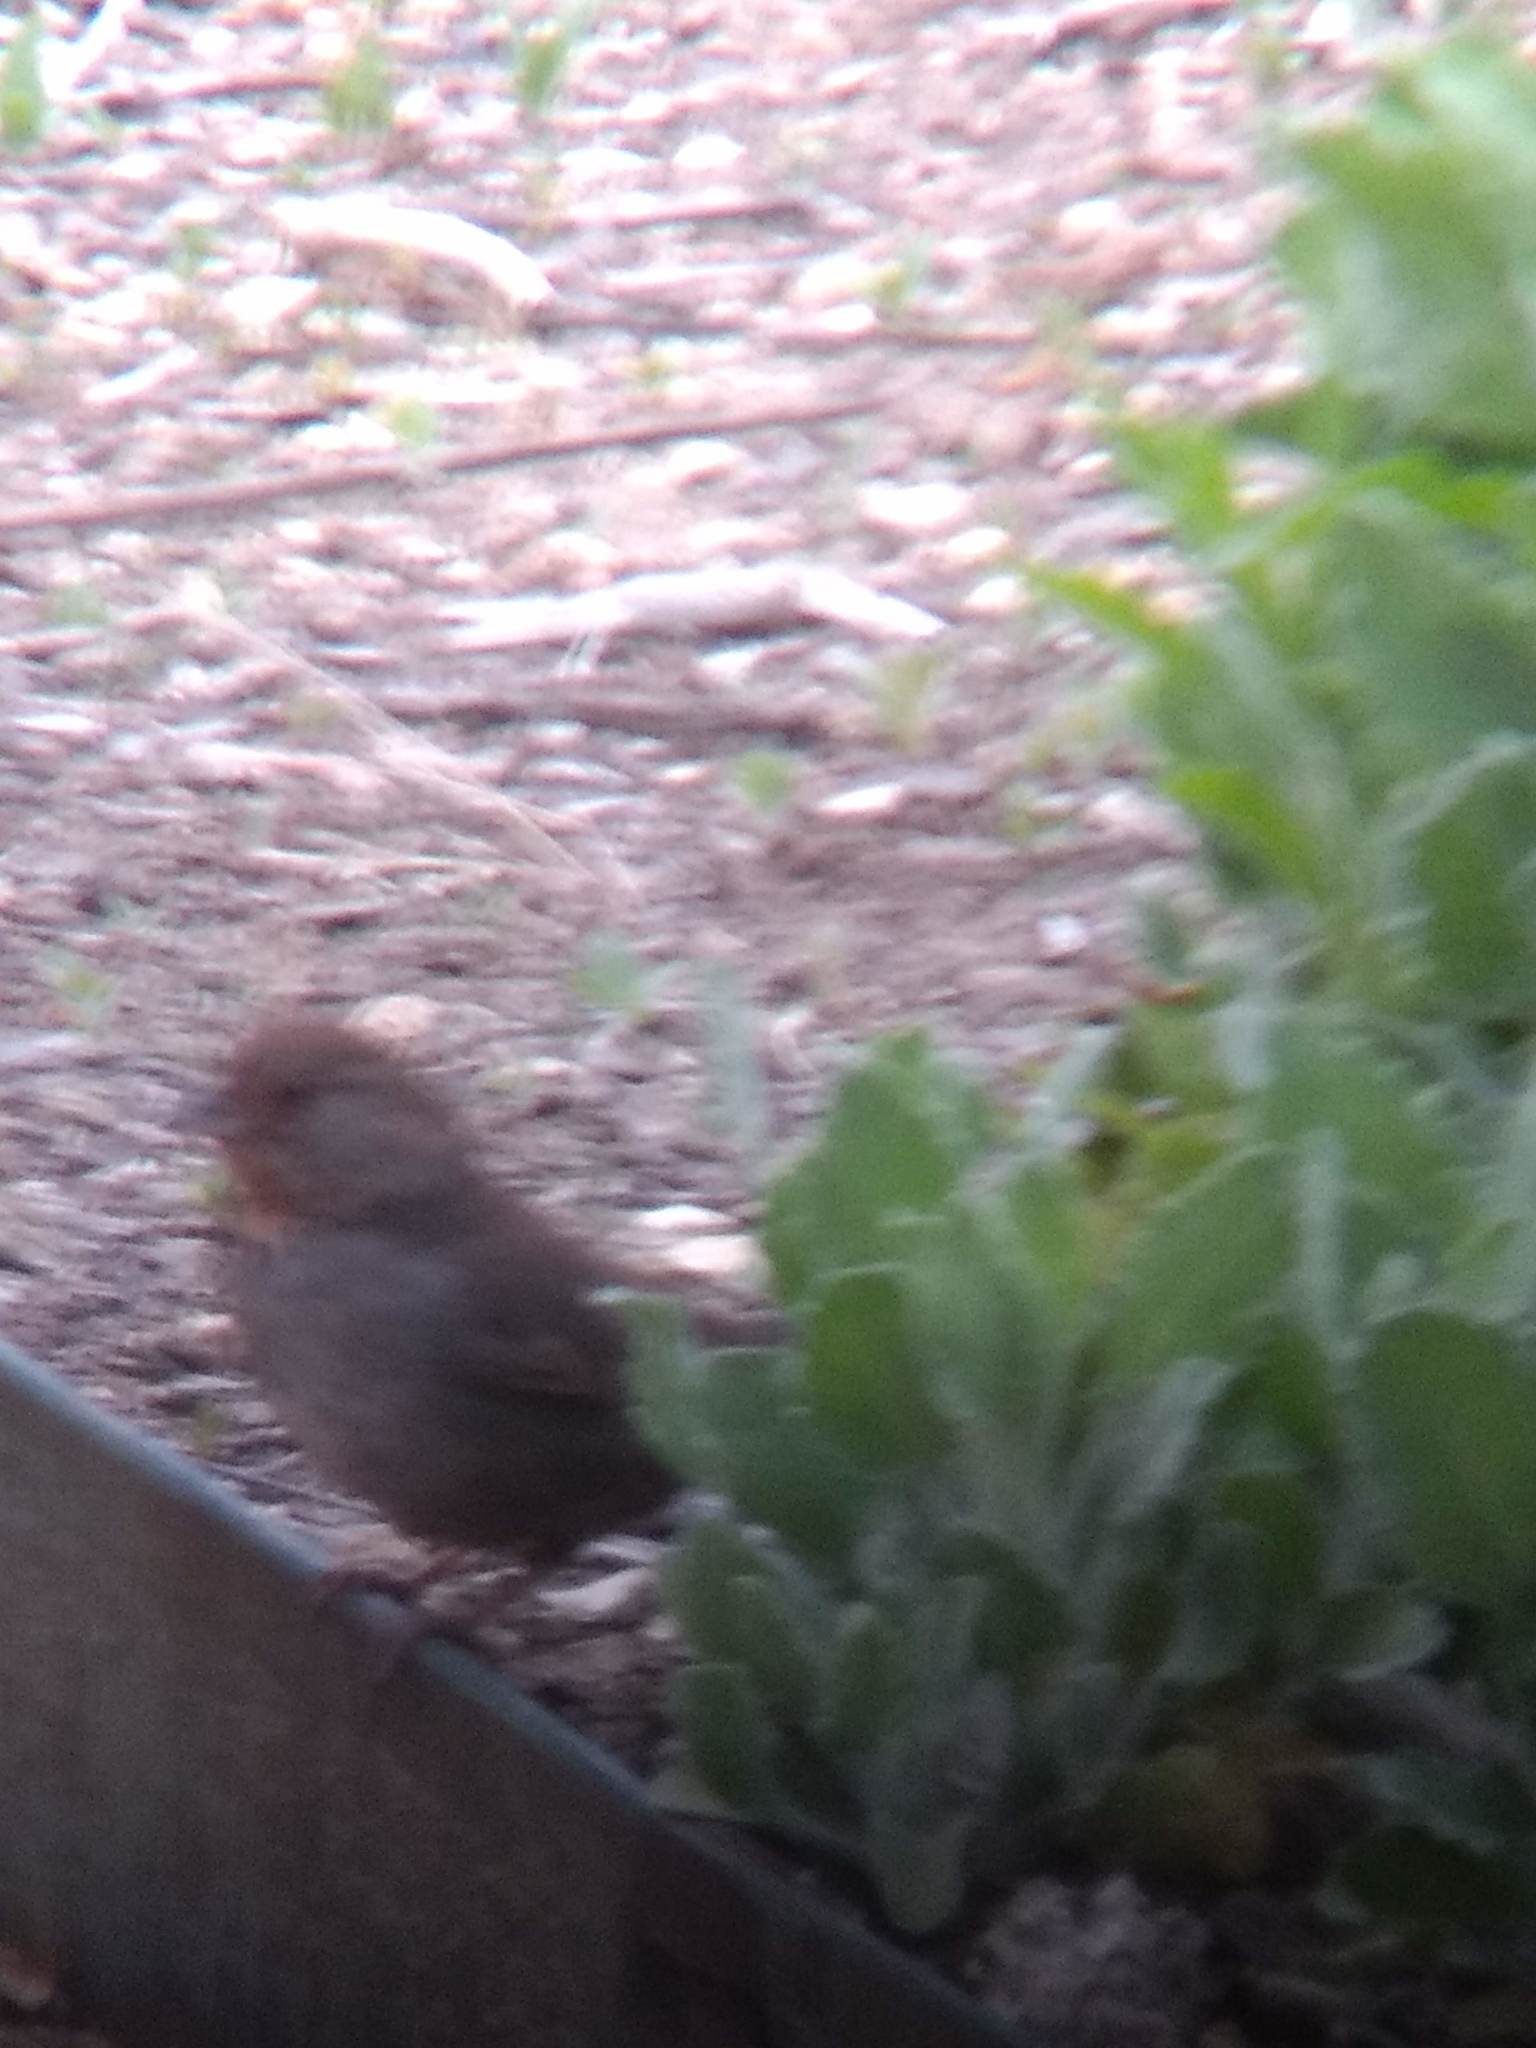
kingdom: Animalia
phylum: Chordata
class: Aves
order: Passeriformes
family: Passerellidae
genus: Melozone
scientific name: Melozone crissalis
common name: California towhee
